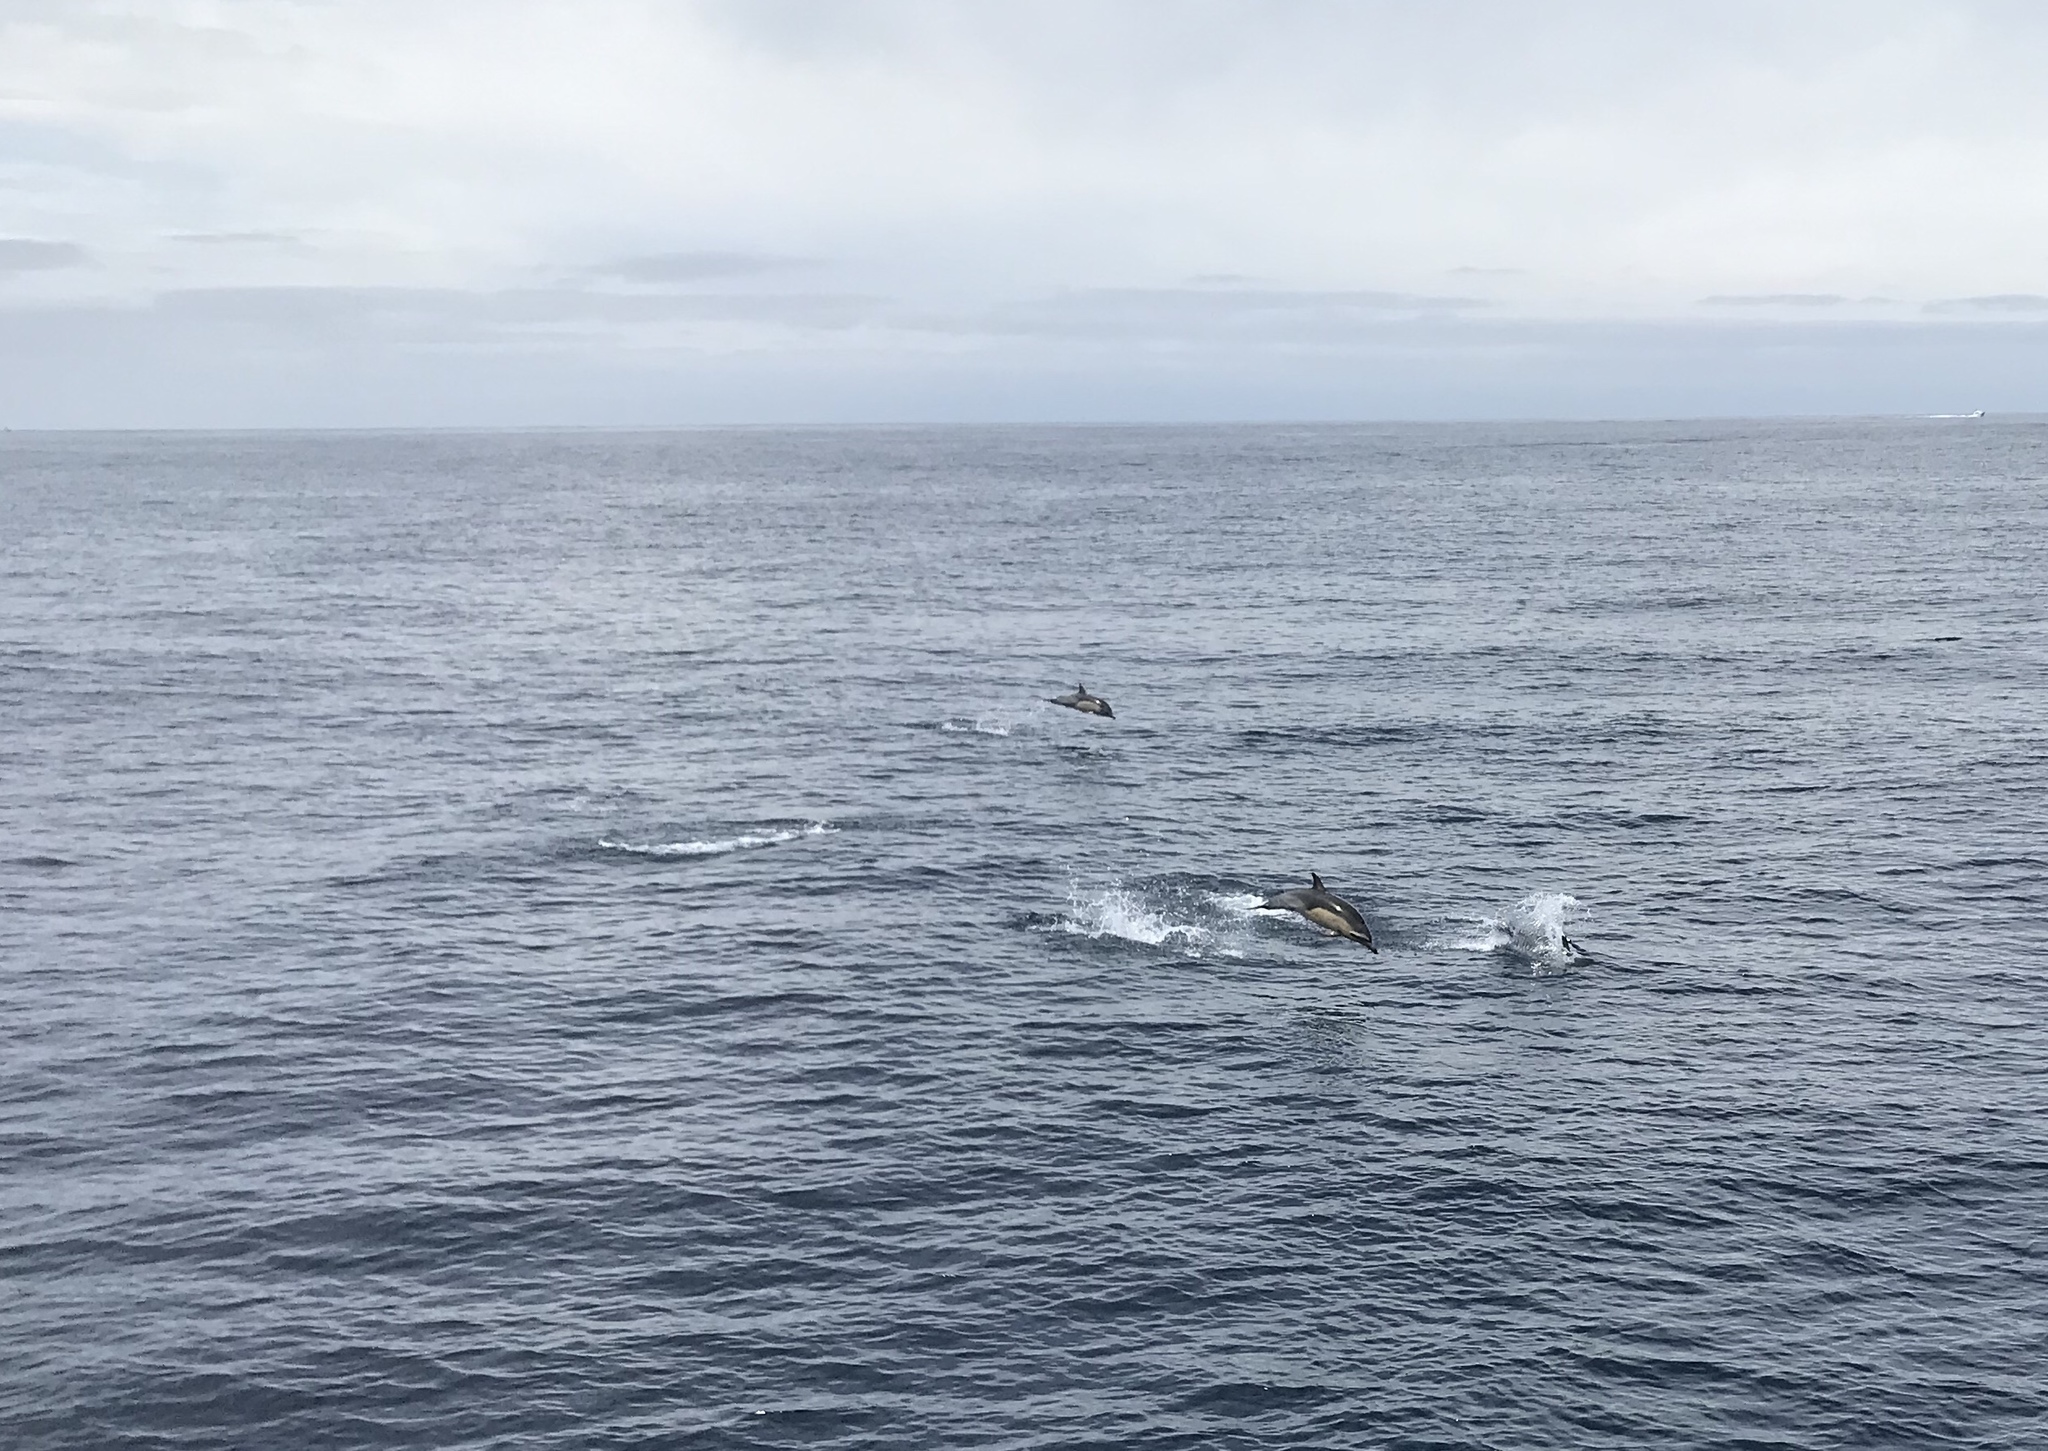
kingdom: Animalia
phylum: Chordata
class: Mammalia
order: Cetacea
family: Delphinidae
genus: Delphinus
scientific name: Delphinus delphis
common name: Common dolphin
